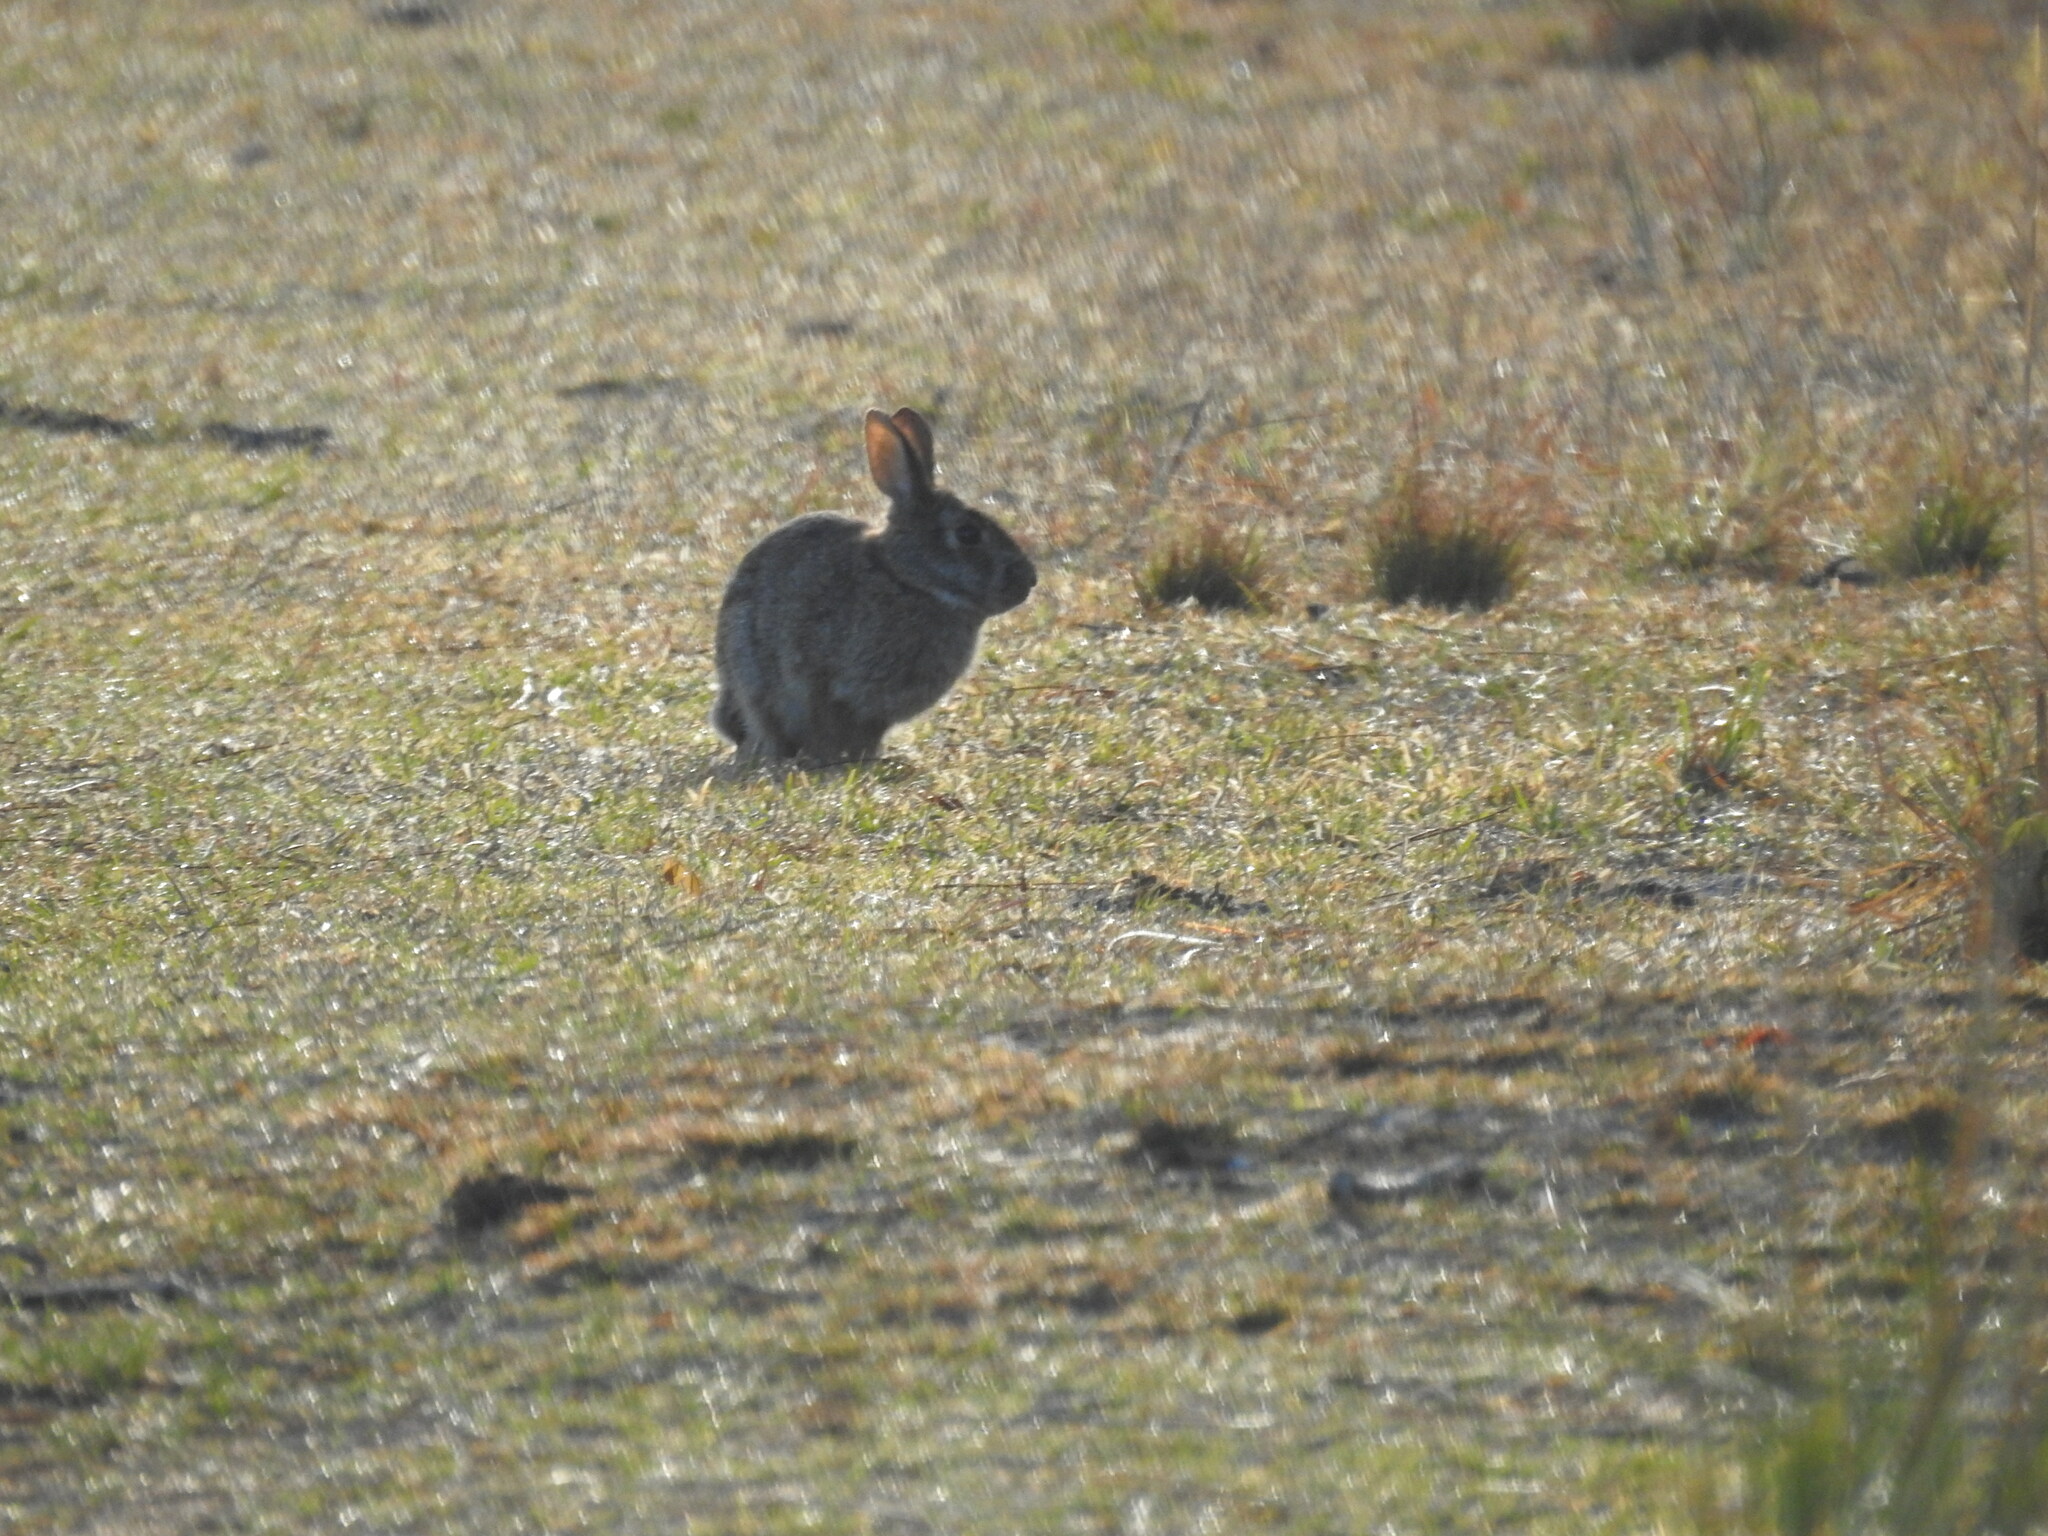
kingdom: Animalia
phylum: Chordata
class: Mammalia
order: Lagomorpha
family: Leporidae
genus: Sylvilagus
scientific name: Sylvilagus floridanus
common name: Eastern cottontail
